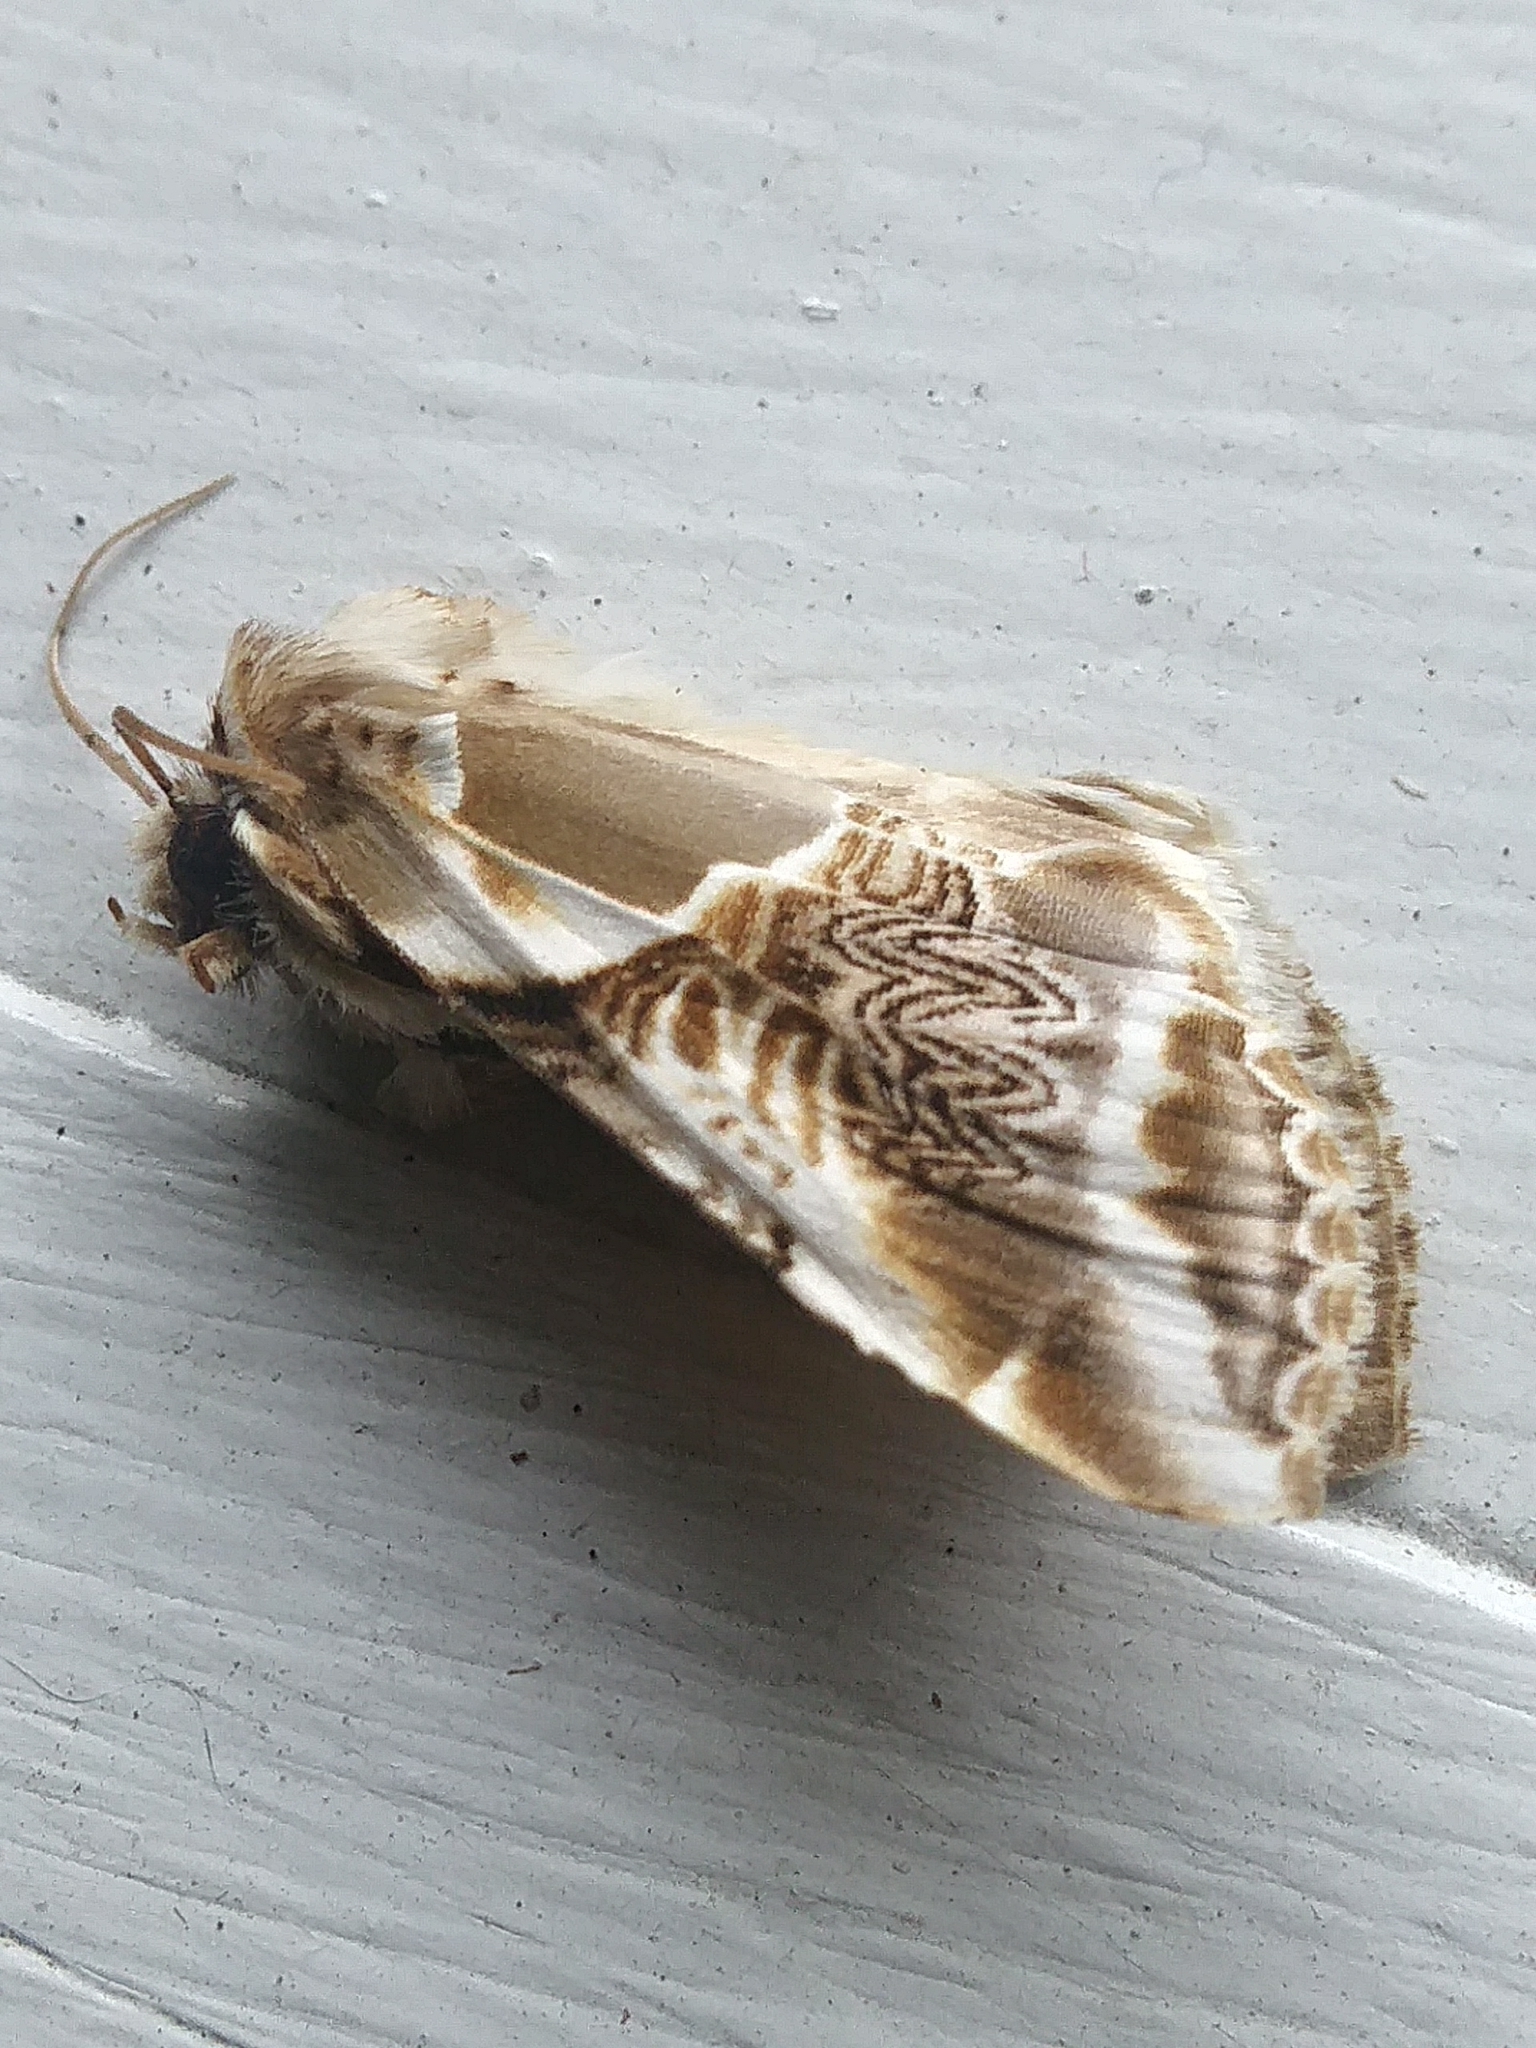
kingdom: Animalia
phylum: Arthropoda
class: Insecta
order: Lepidoptera
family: Drepanidae
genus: Habrosyne
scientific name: Habrosyne scripta
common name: Lettered habrosyne moth
